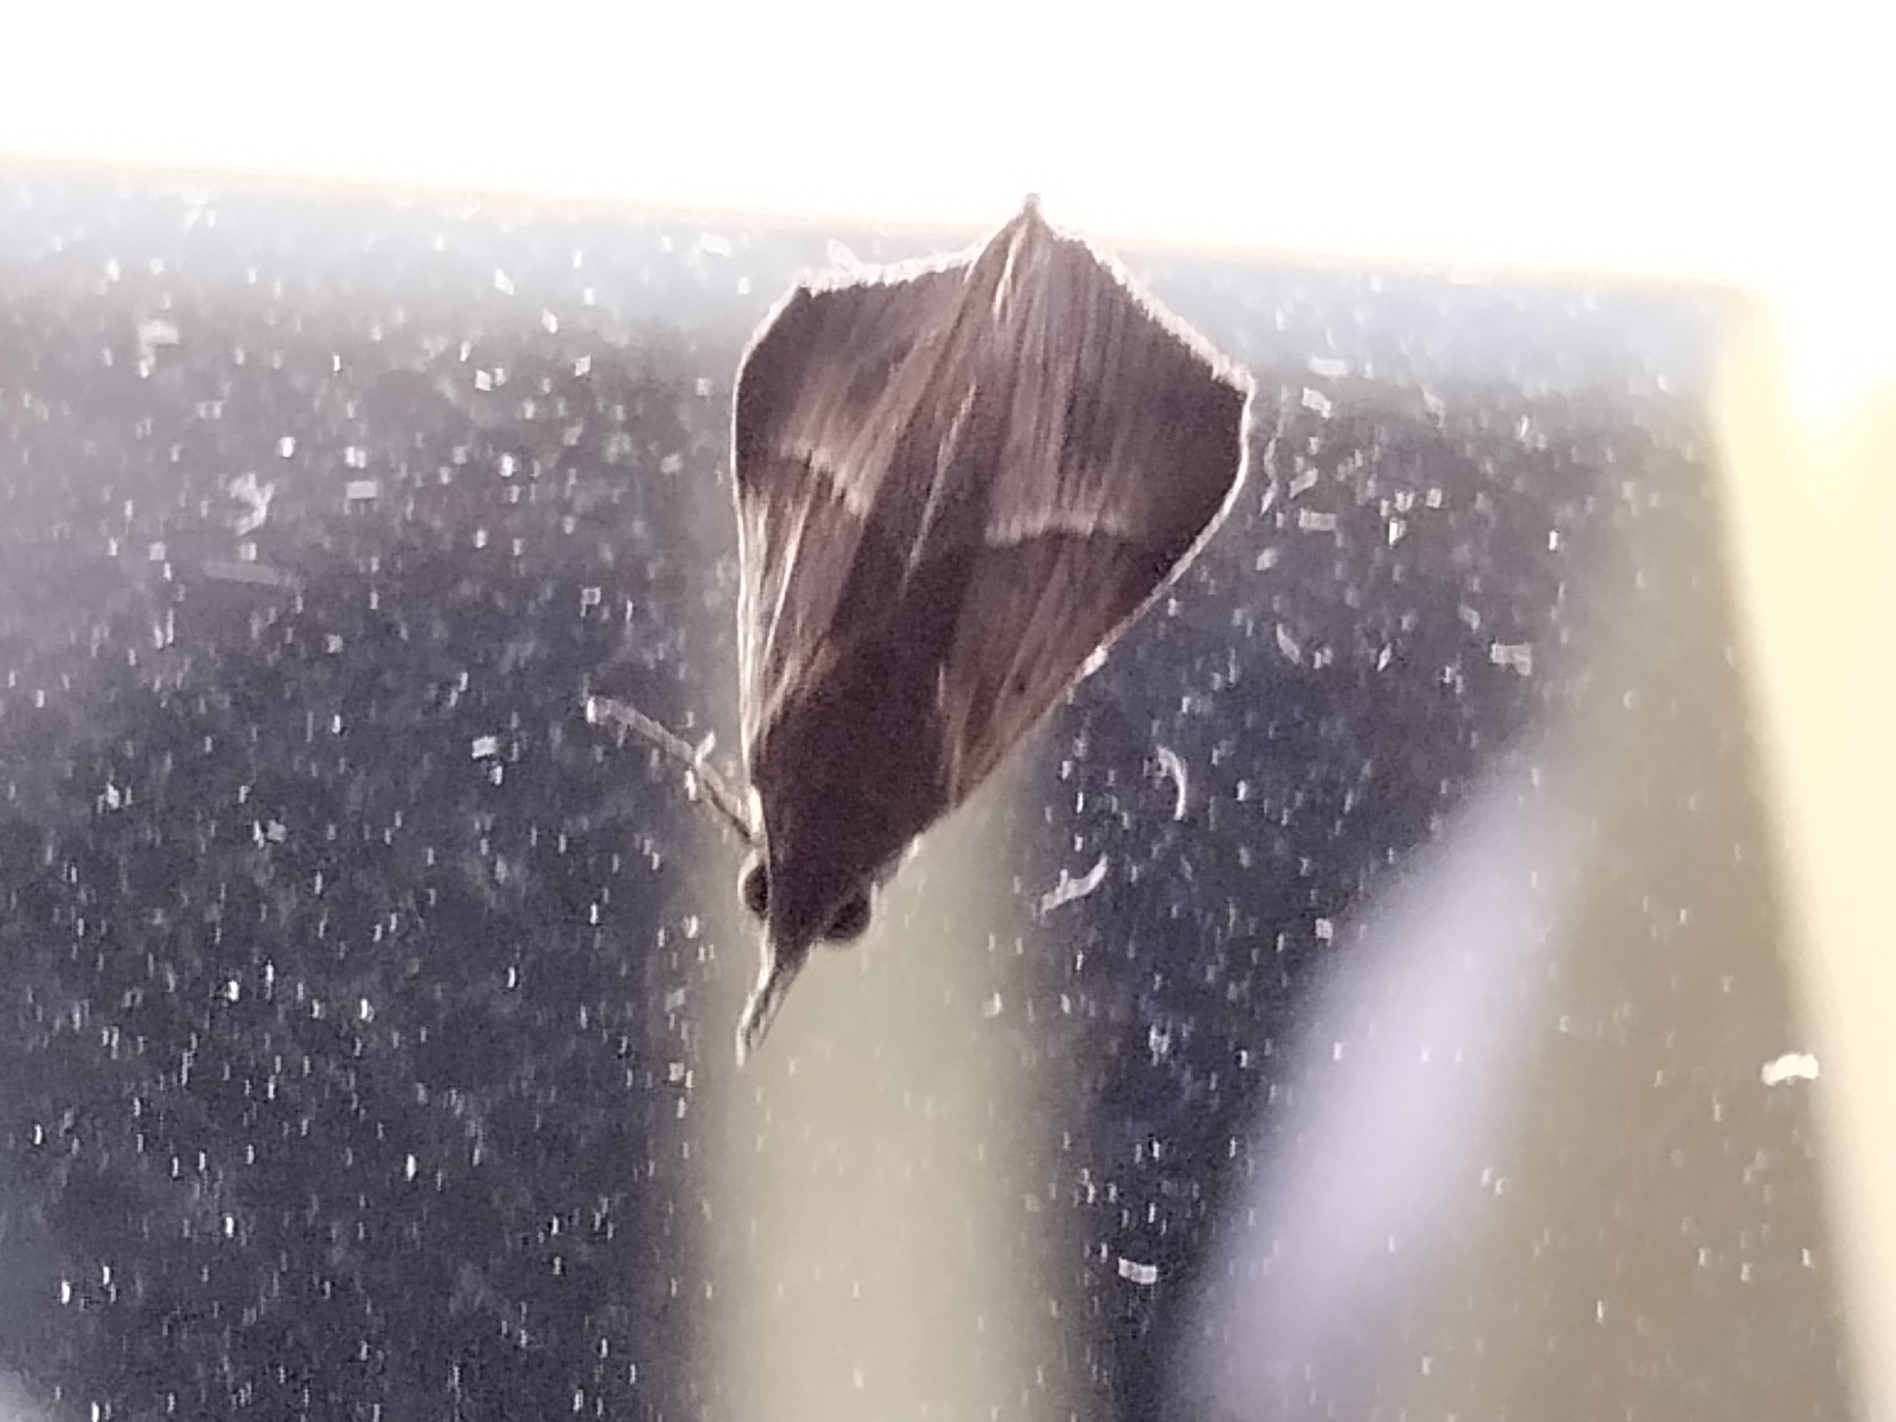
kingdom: Animalia
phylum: Arthropoda
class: Insecta
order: Lepidoptera
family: Erebidae
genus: Hypena
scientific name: Hypena lividalis
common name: Chevron snout
